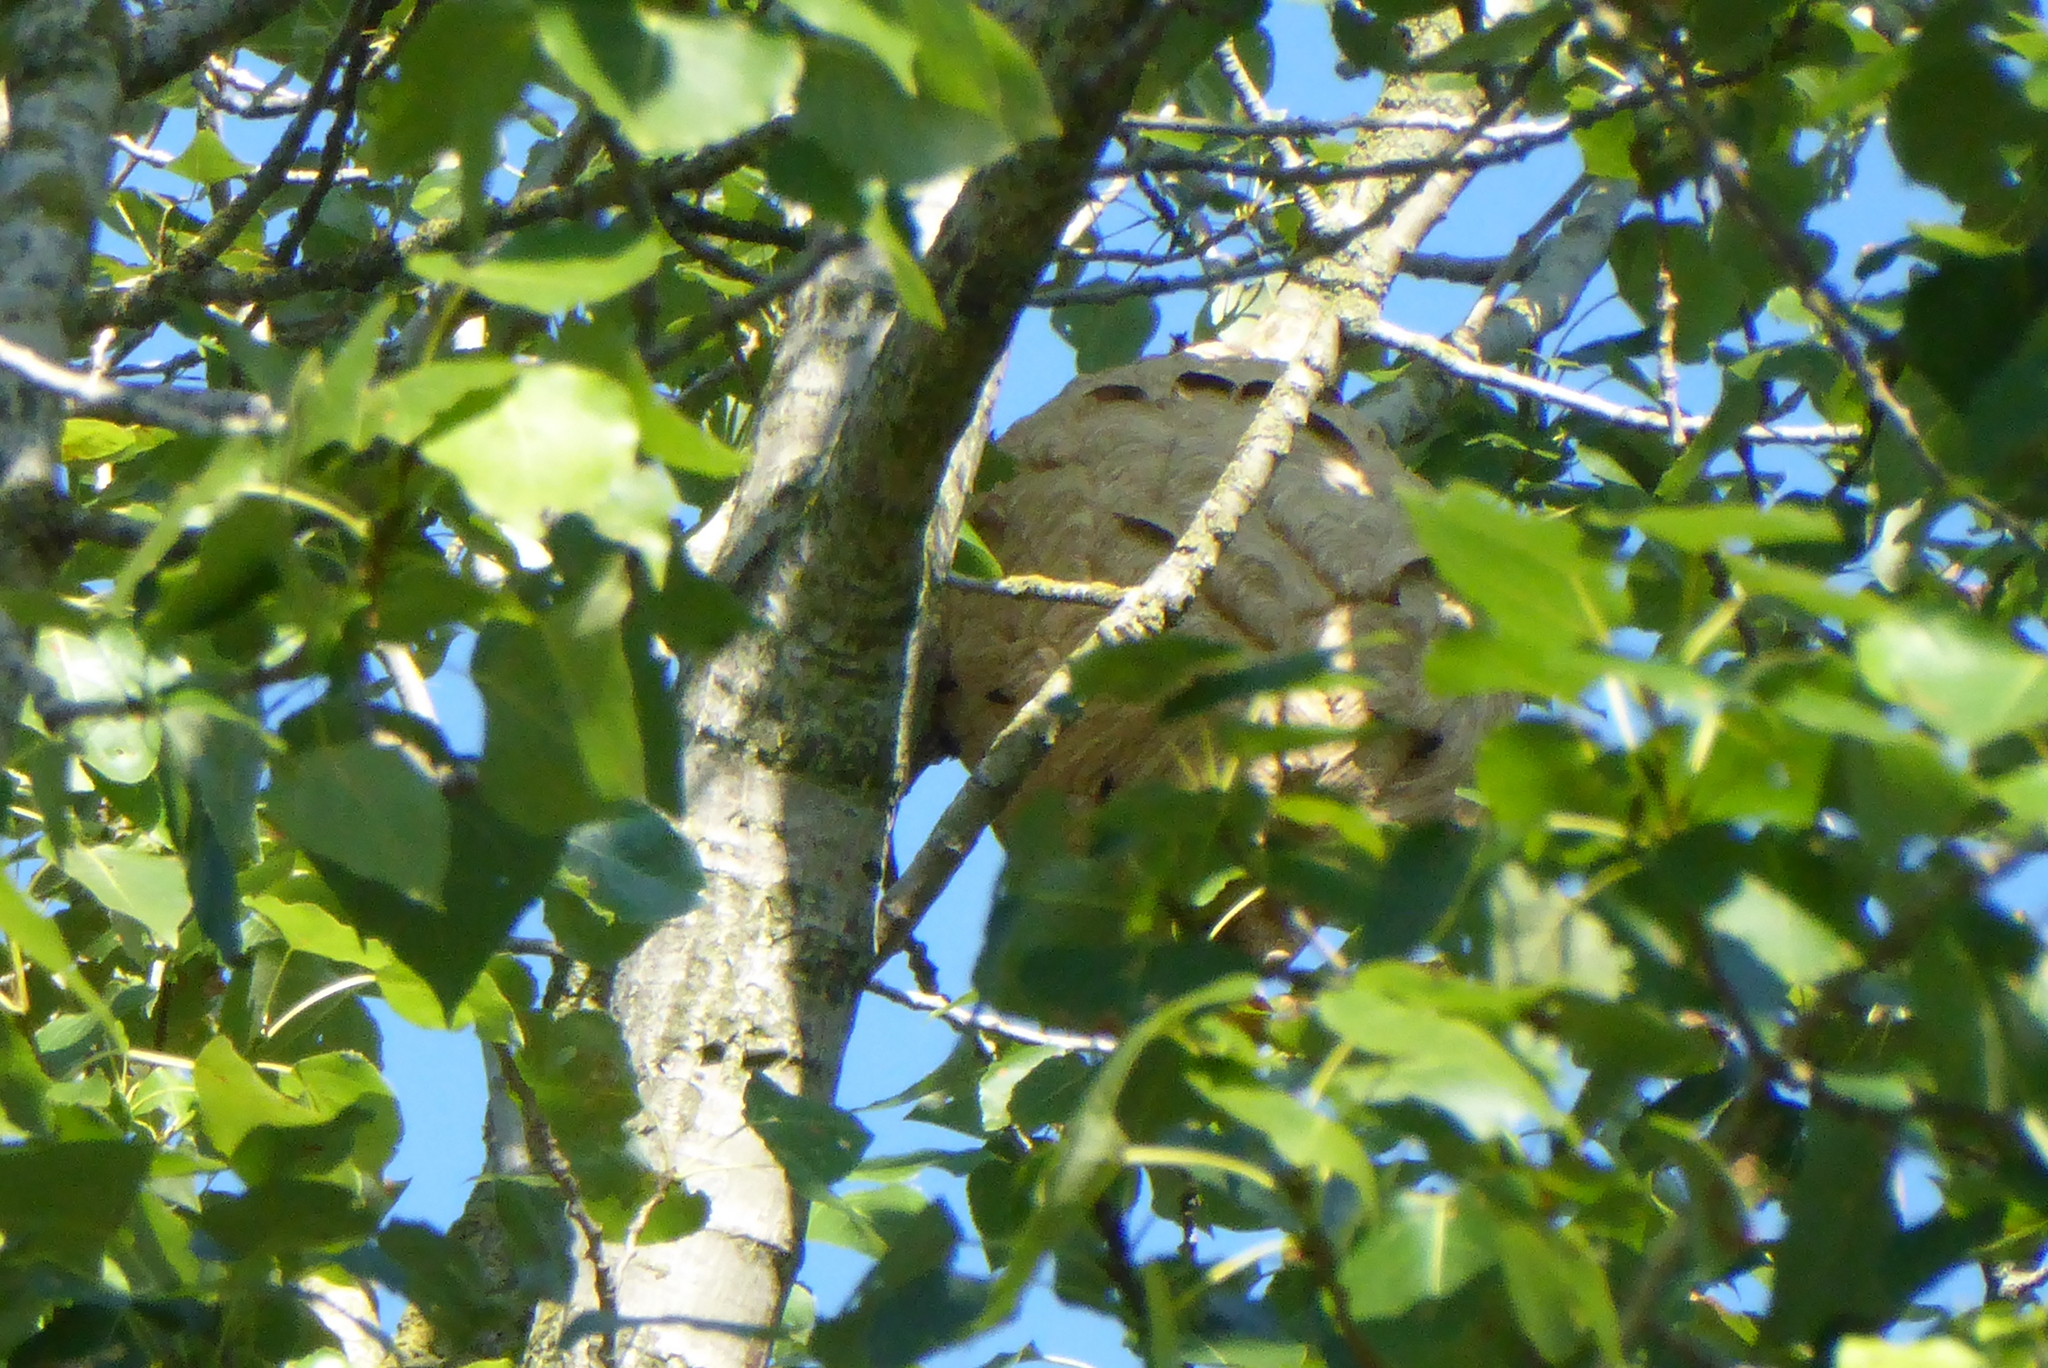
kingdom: Animalia
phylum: Arthropoda
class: Insecta
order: Hymenoptera
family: Vespidae
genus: Vespa
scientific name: Vespa velutina
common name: Asian hornet
